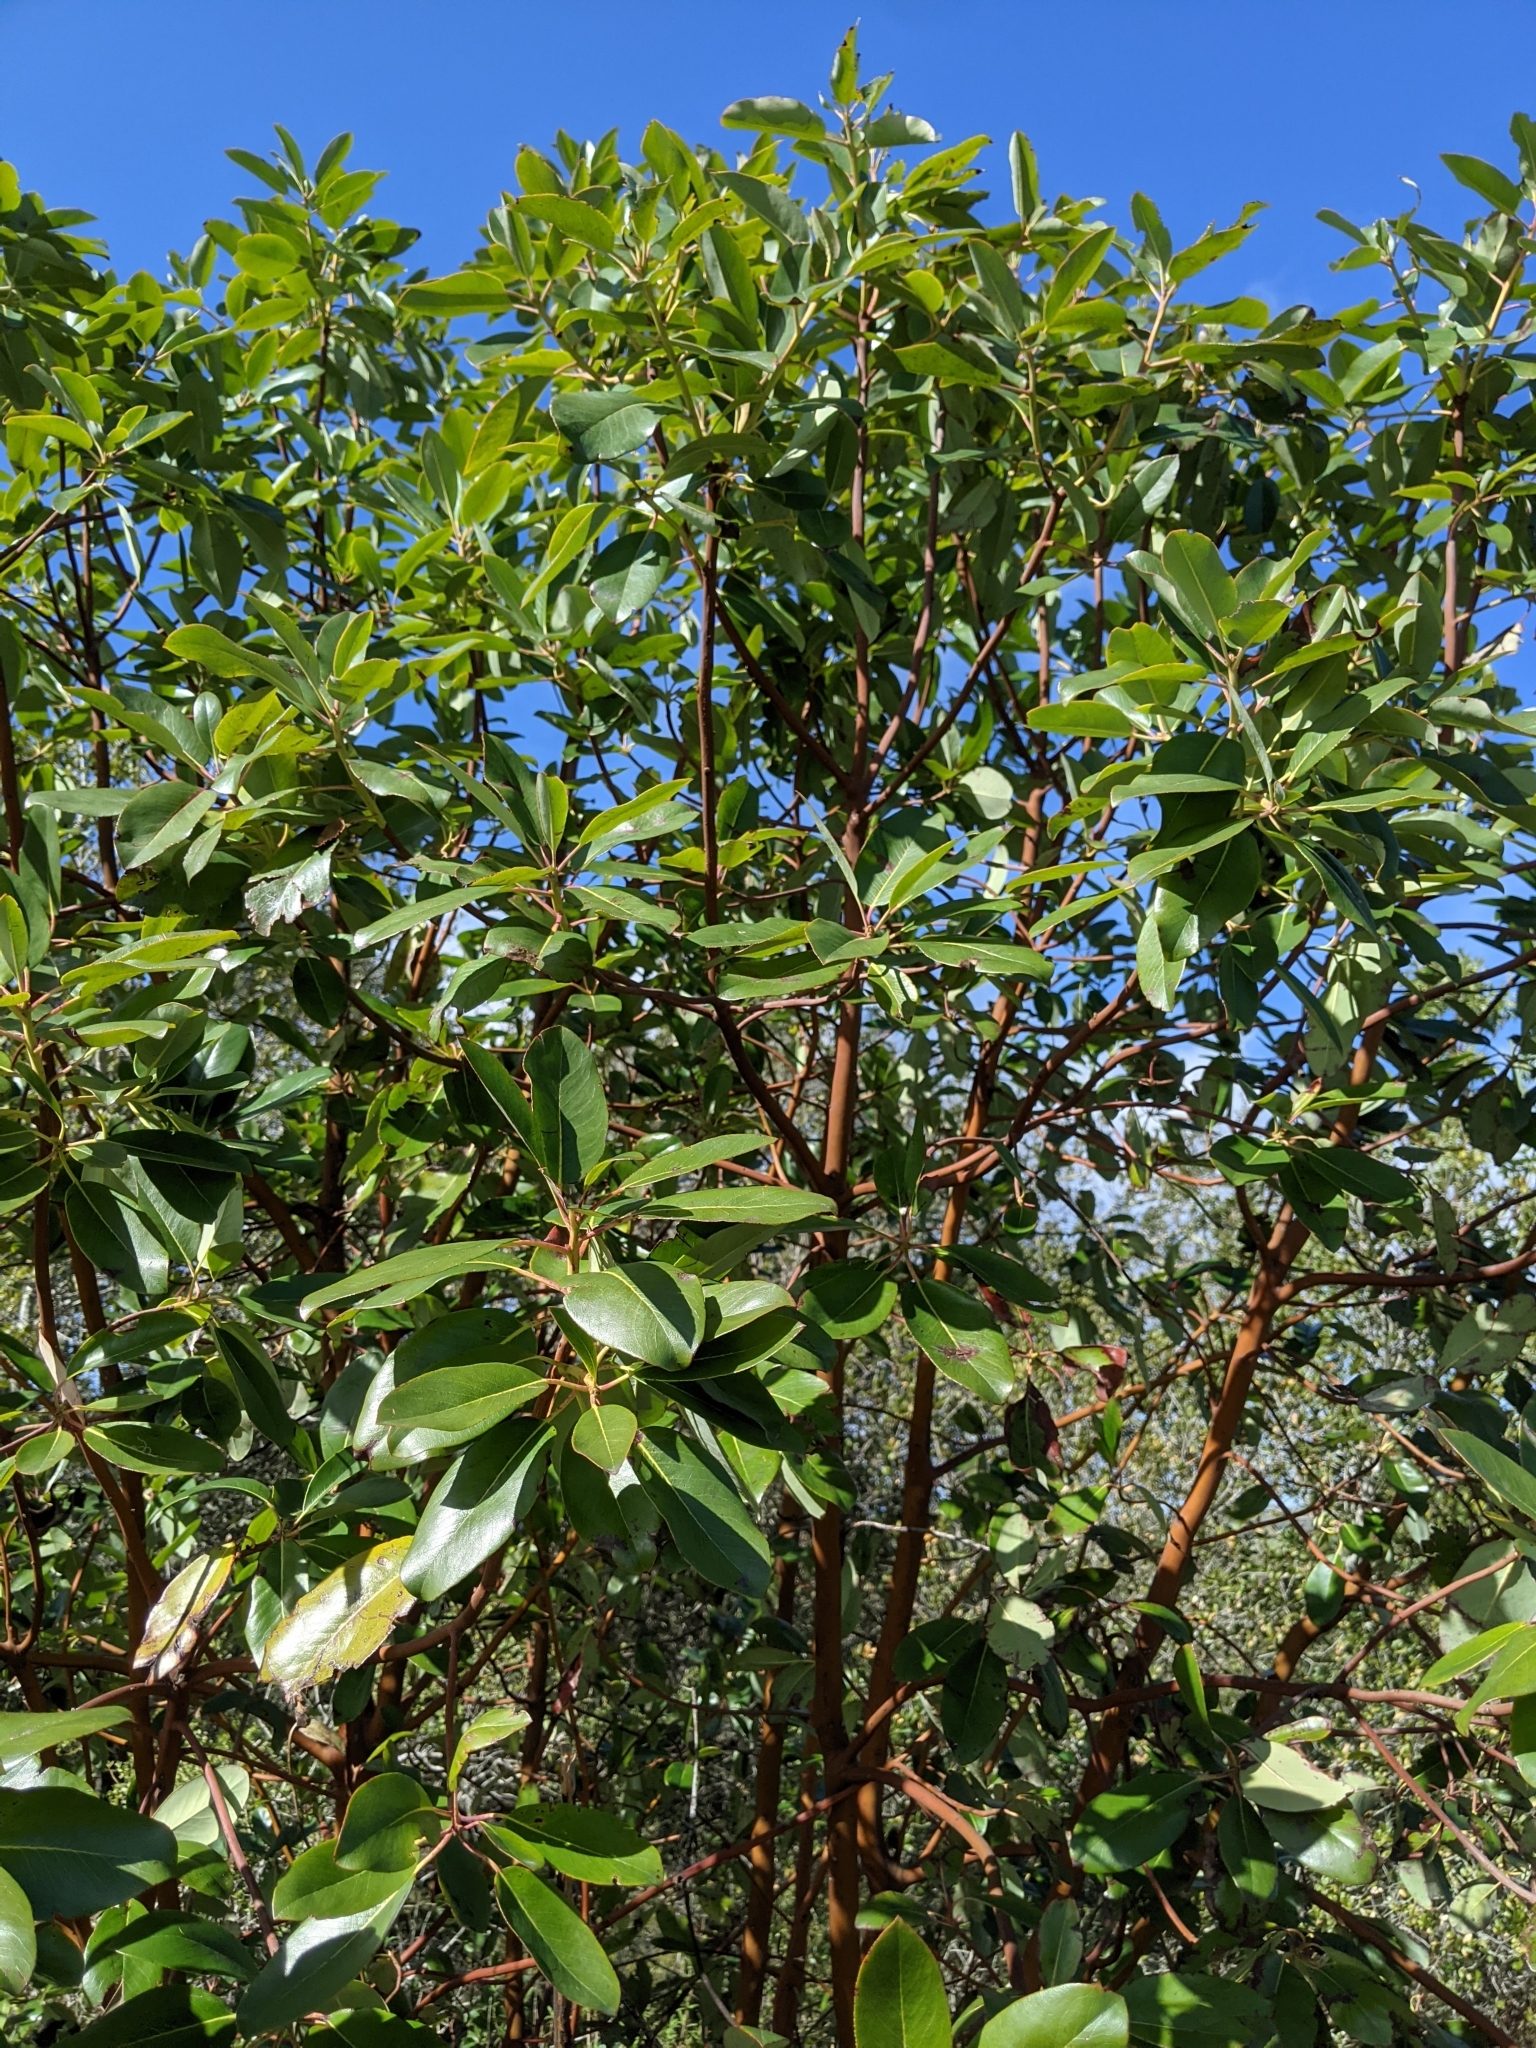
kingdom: Plantae
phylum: Tracheophyta
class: Magnoliopsida
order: Ericales
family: Ericaceae
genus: Arbutus
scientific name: Arbutus menziesii
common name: Pacific madrone
